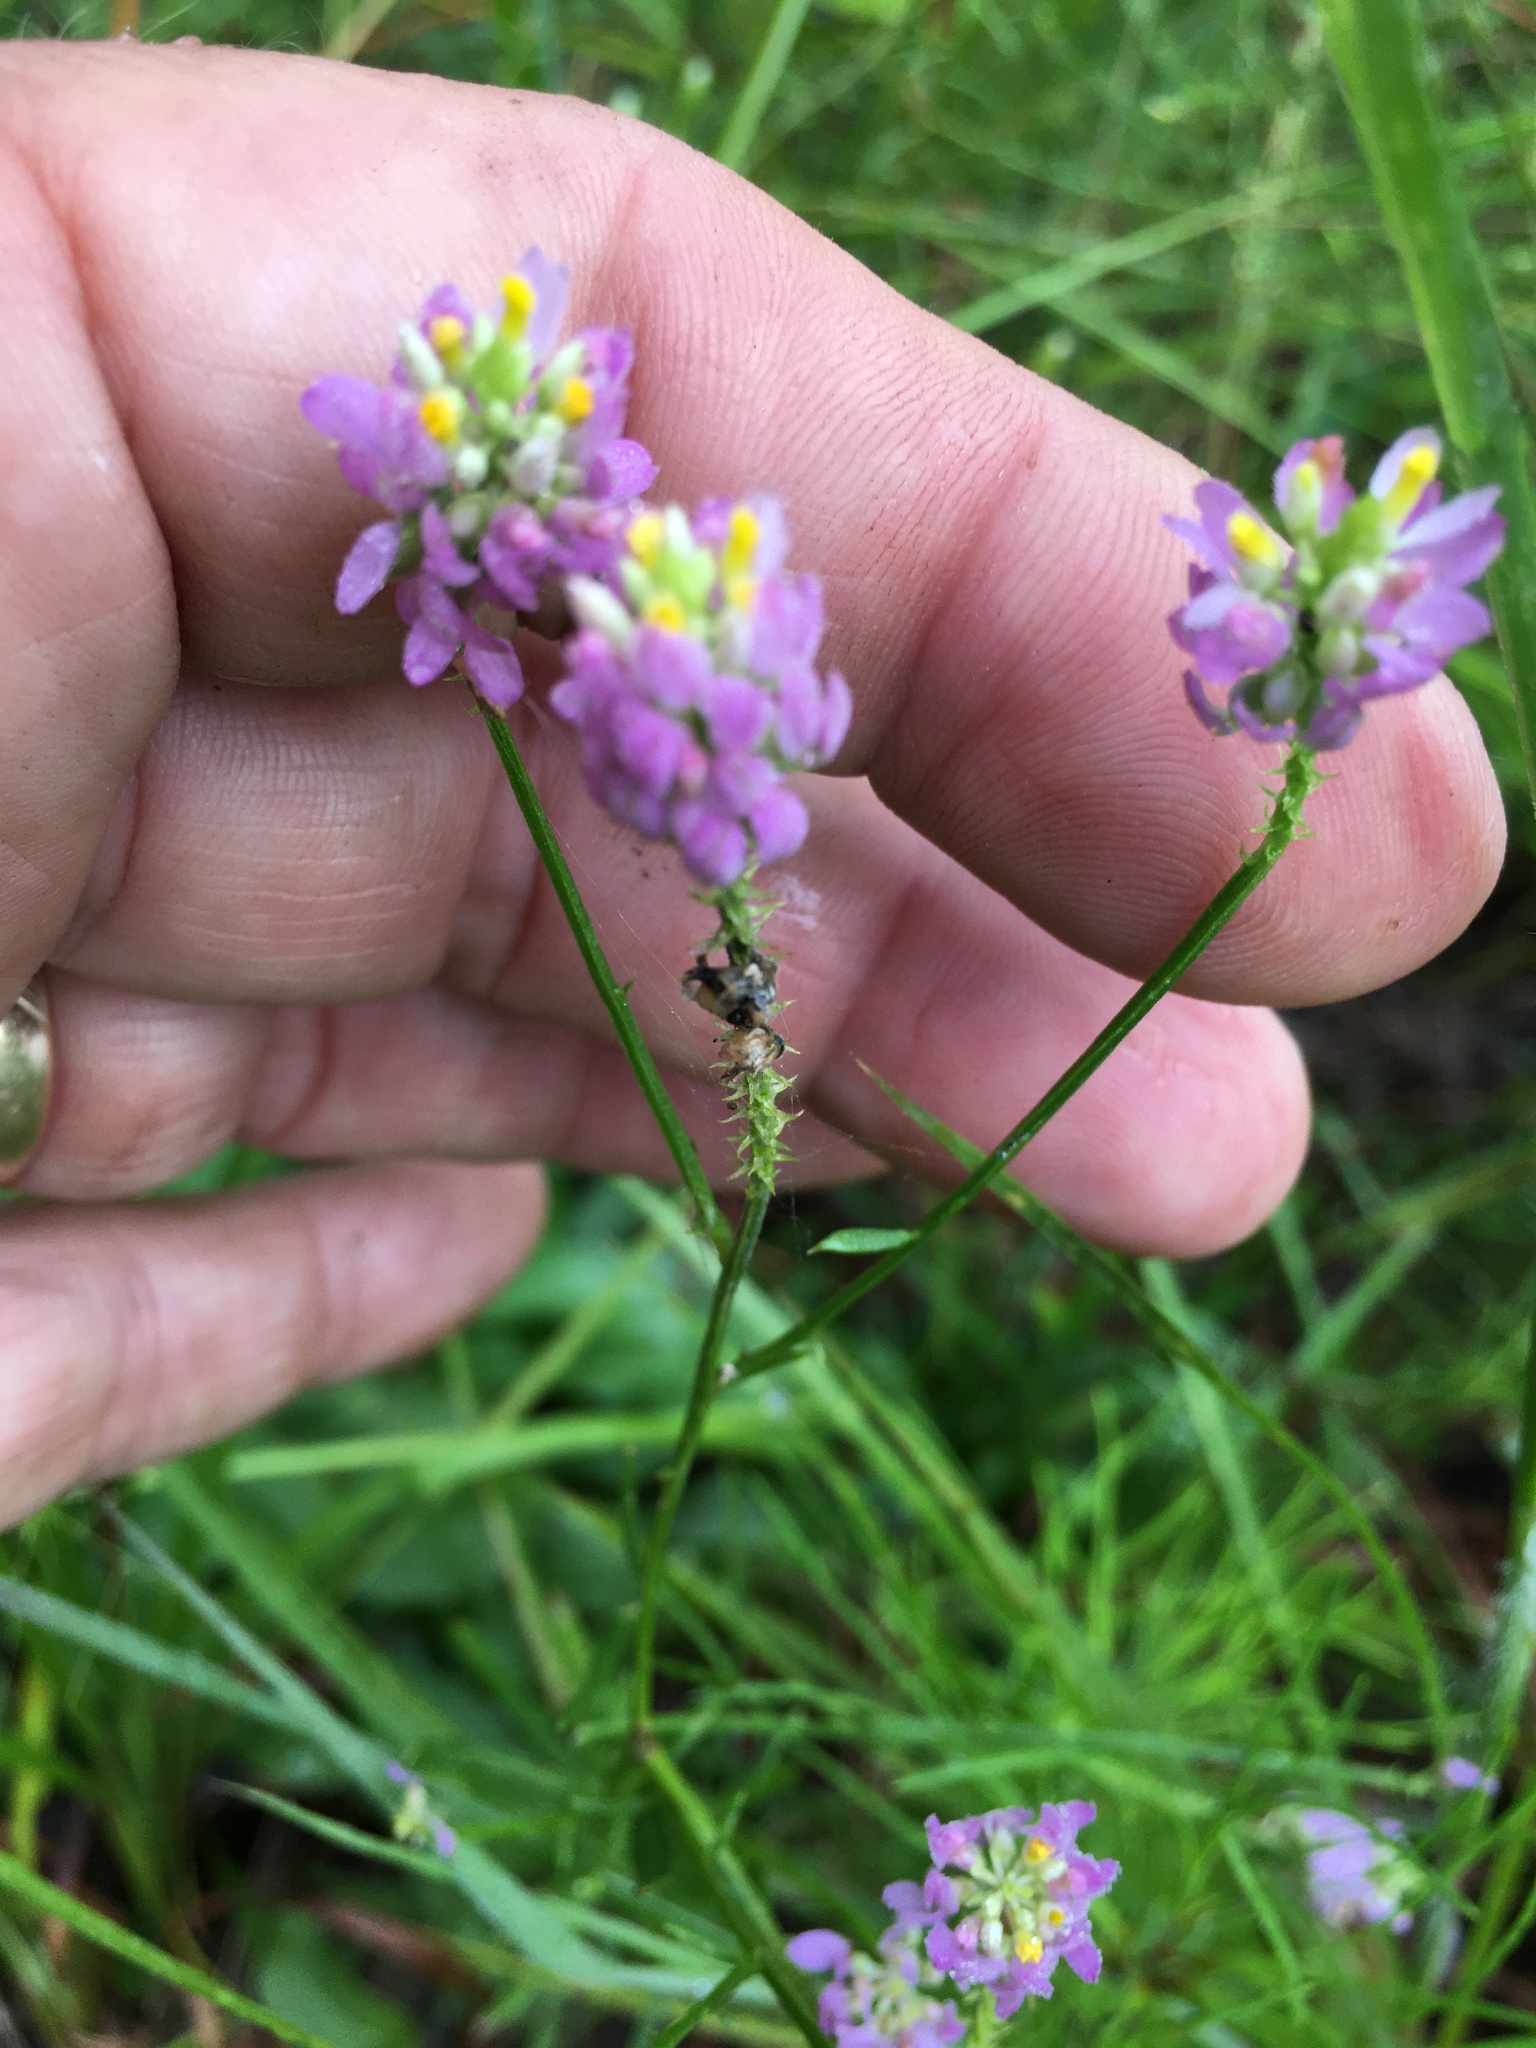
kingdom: Plantae
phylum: Tracheophyta
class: Magnoliopsida
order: Fabales
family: Polygalaceae
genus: Polygala
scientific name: Polygala curtissii
